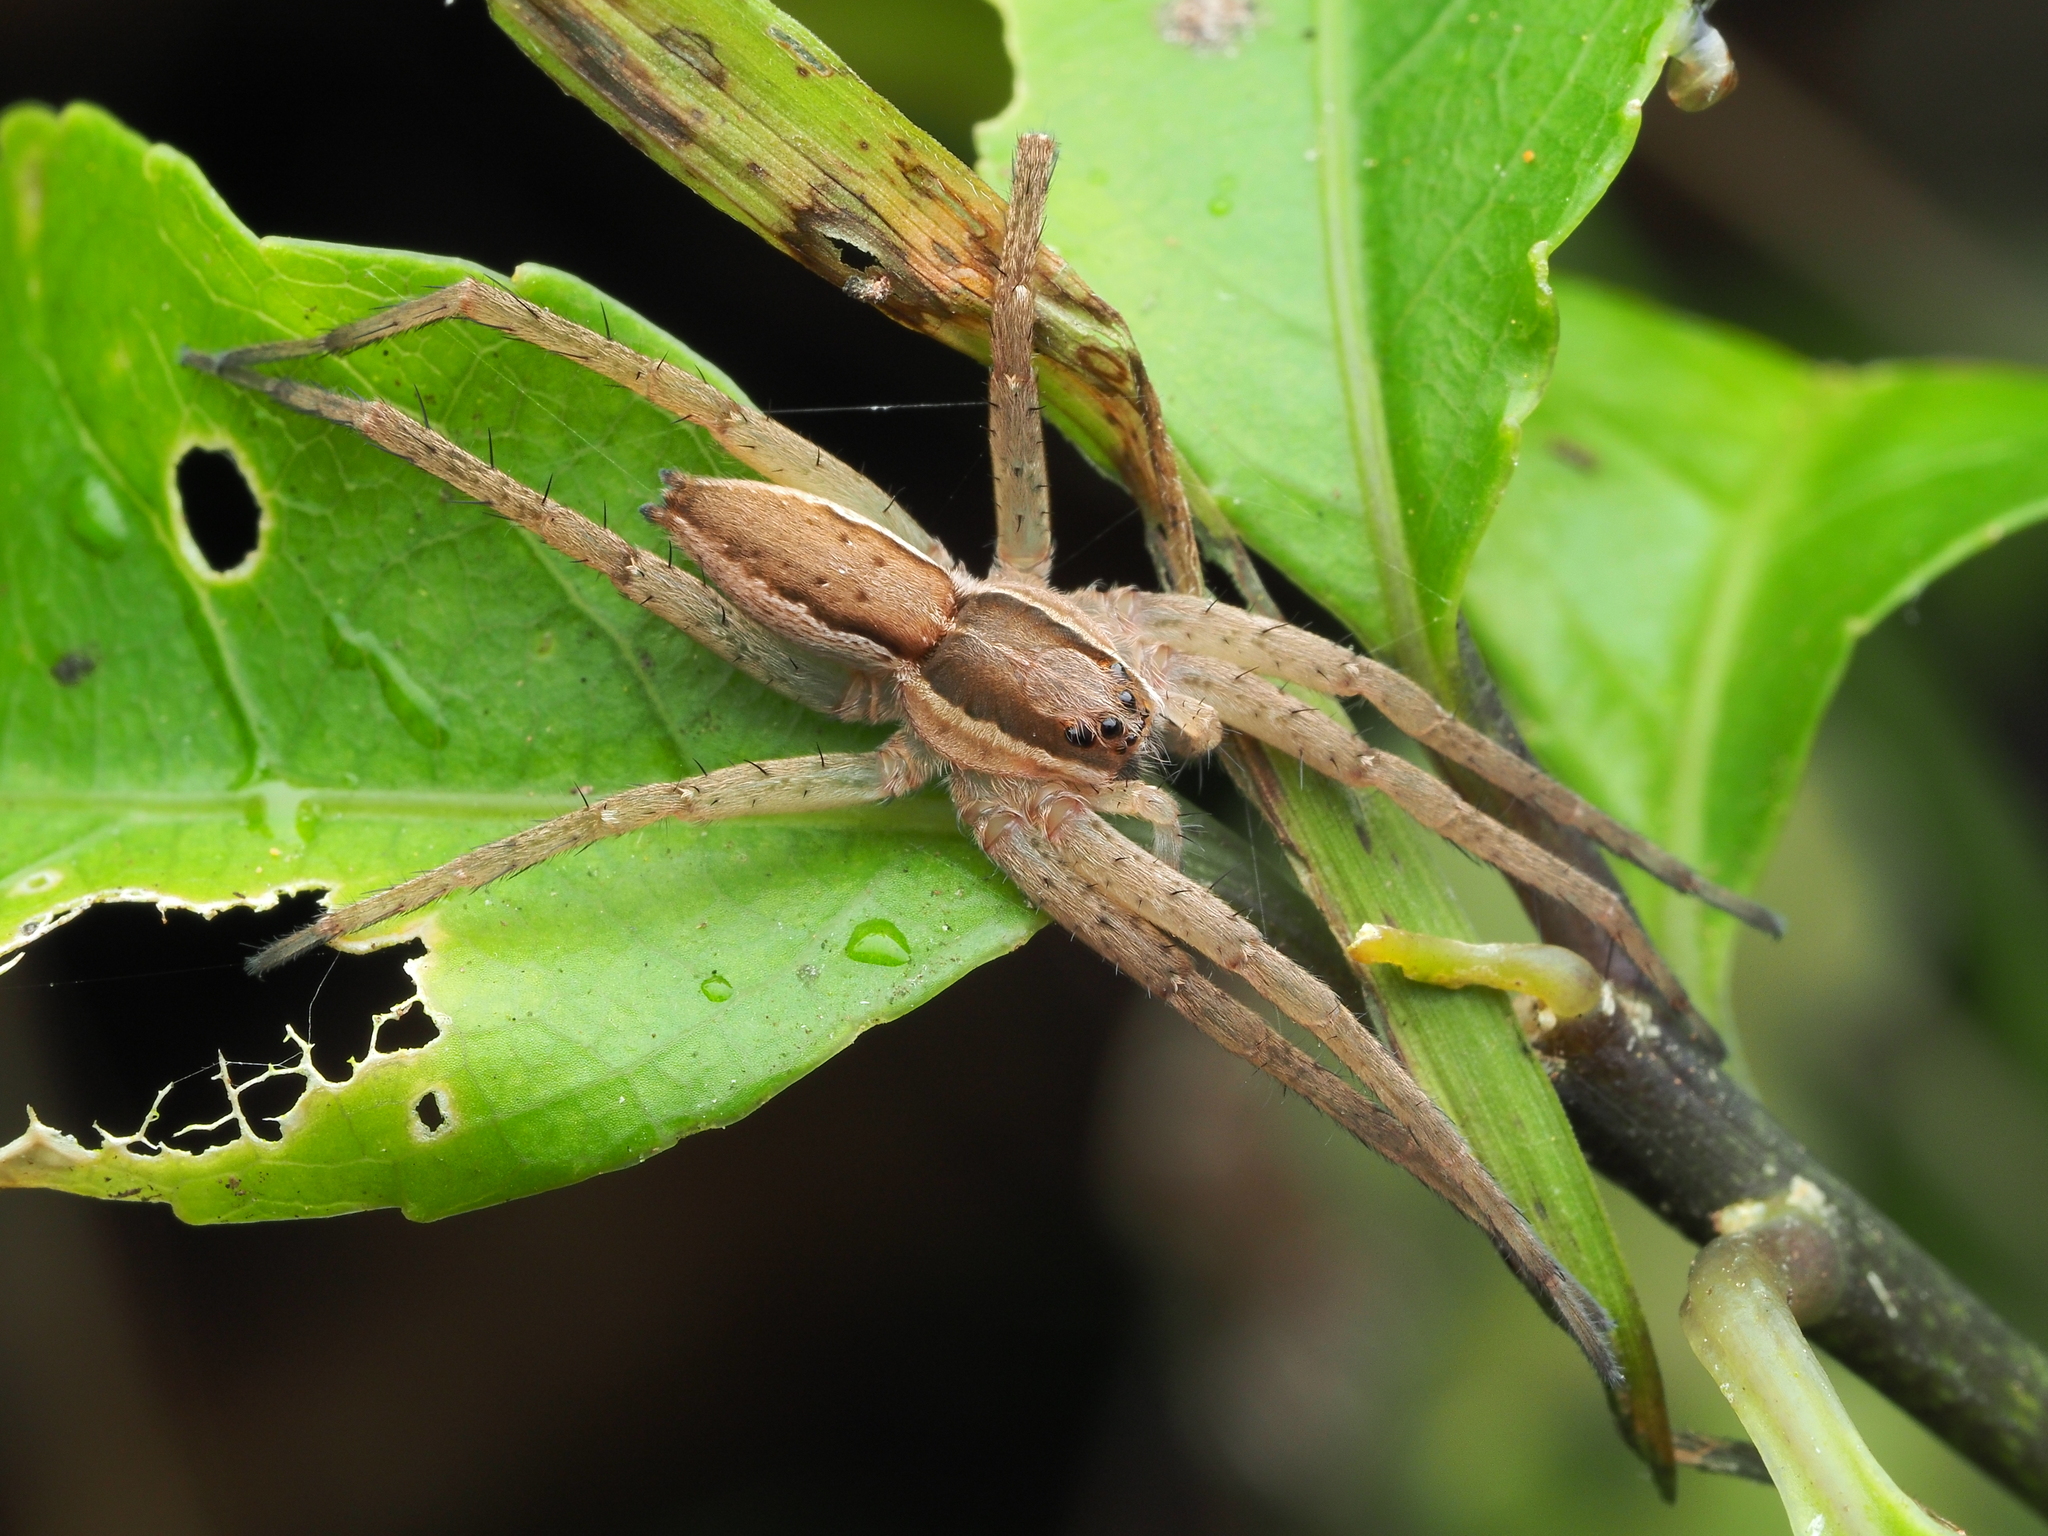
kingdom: Animalia
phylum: Arthropoda
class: Arachnida
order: Araneae
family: Pisauridae
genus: Dolomedes
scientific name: Dolomedes minor
